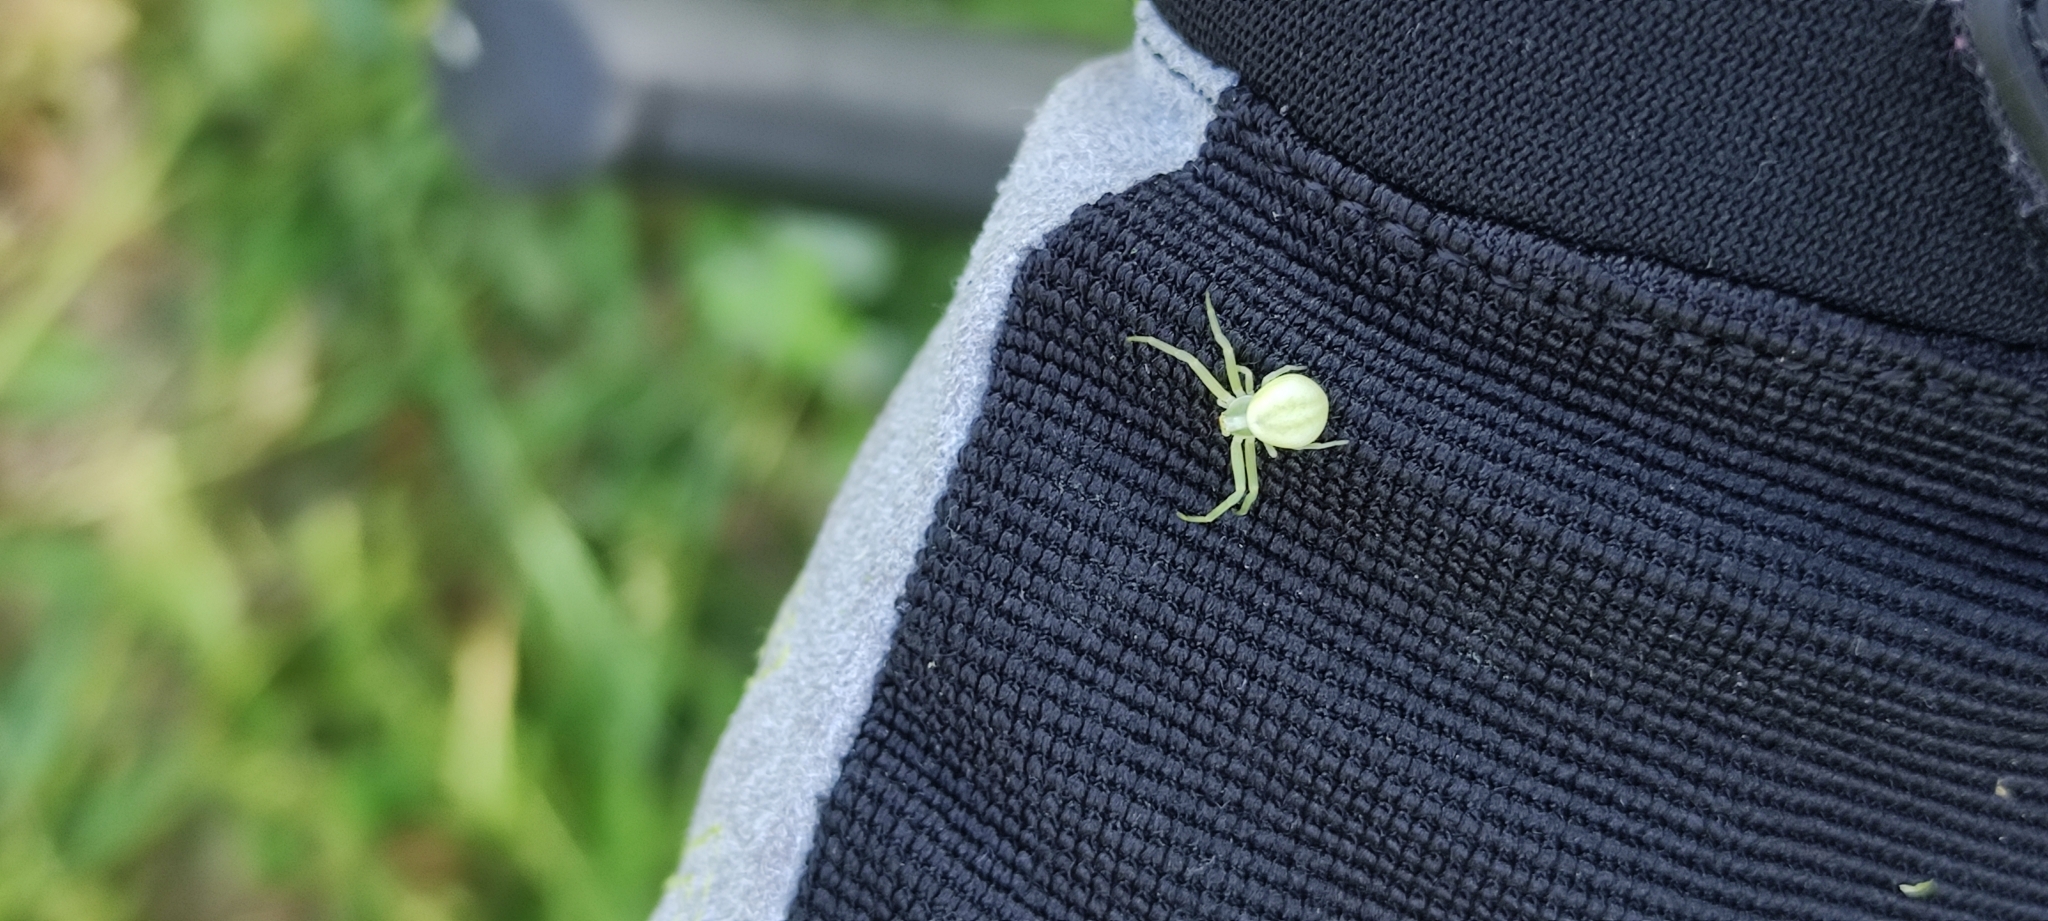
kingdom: Animalia
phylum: Arthropoda
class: Arachnida
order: Araneae
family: Thomisidae
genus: Misumena
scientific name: Misumena vatia
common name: Goldenrod crab spider
